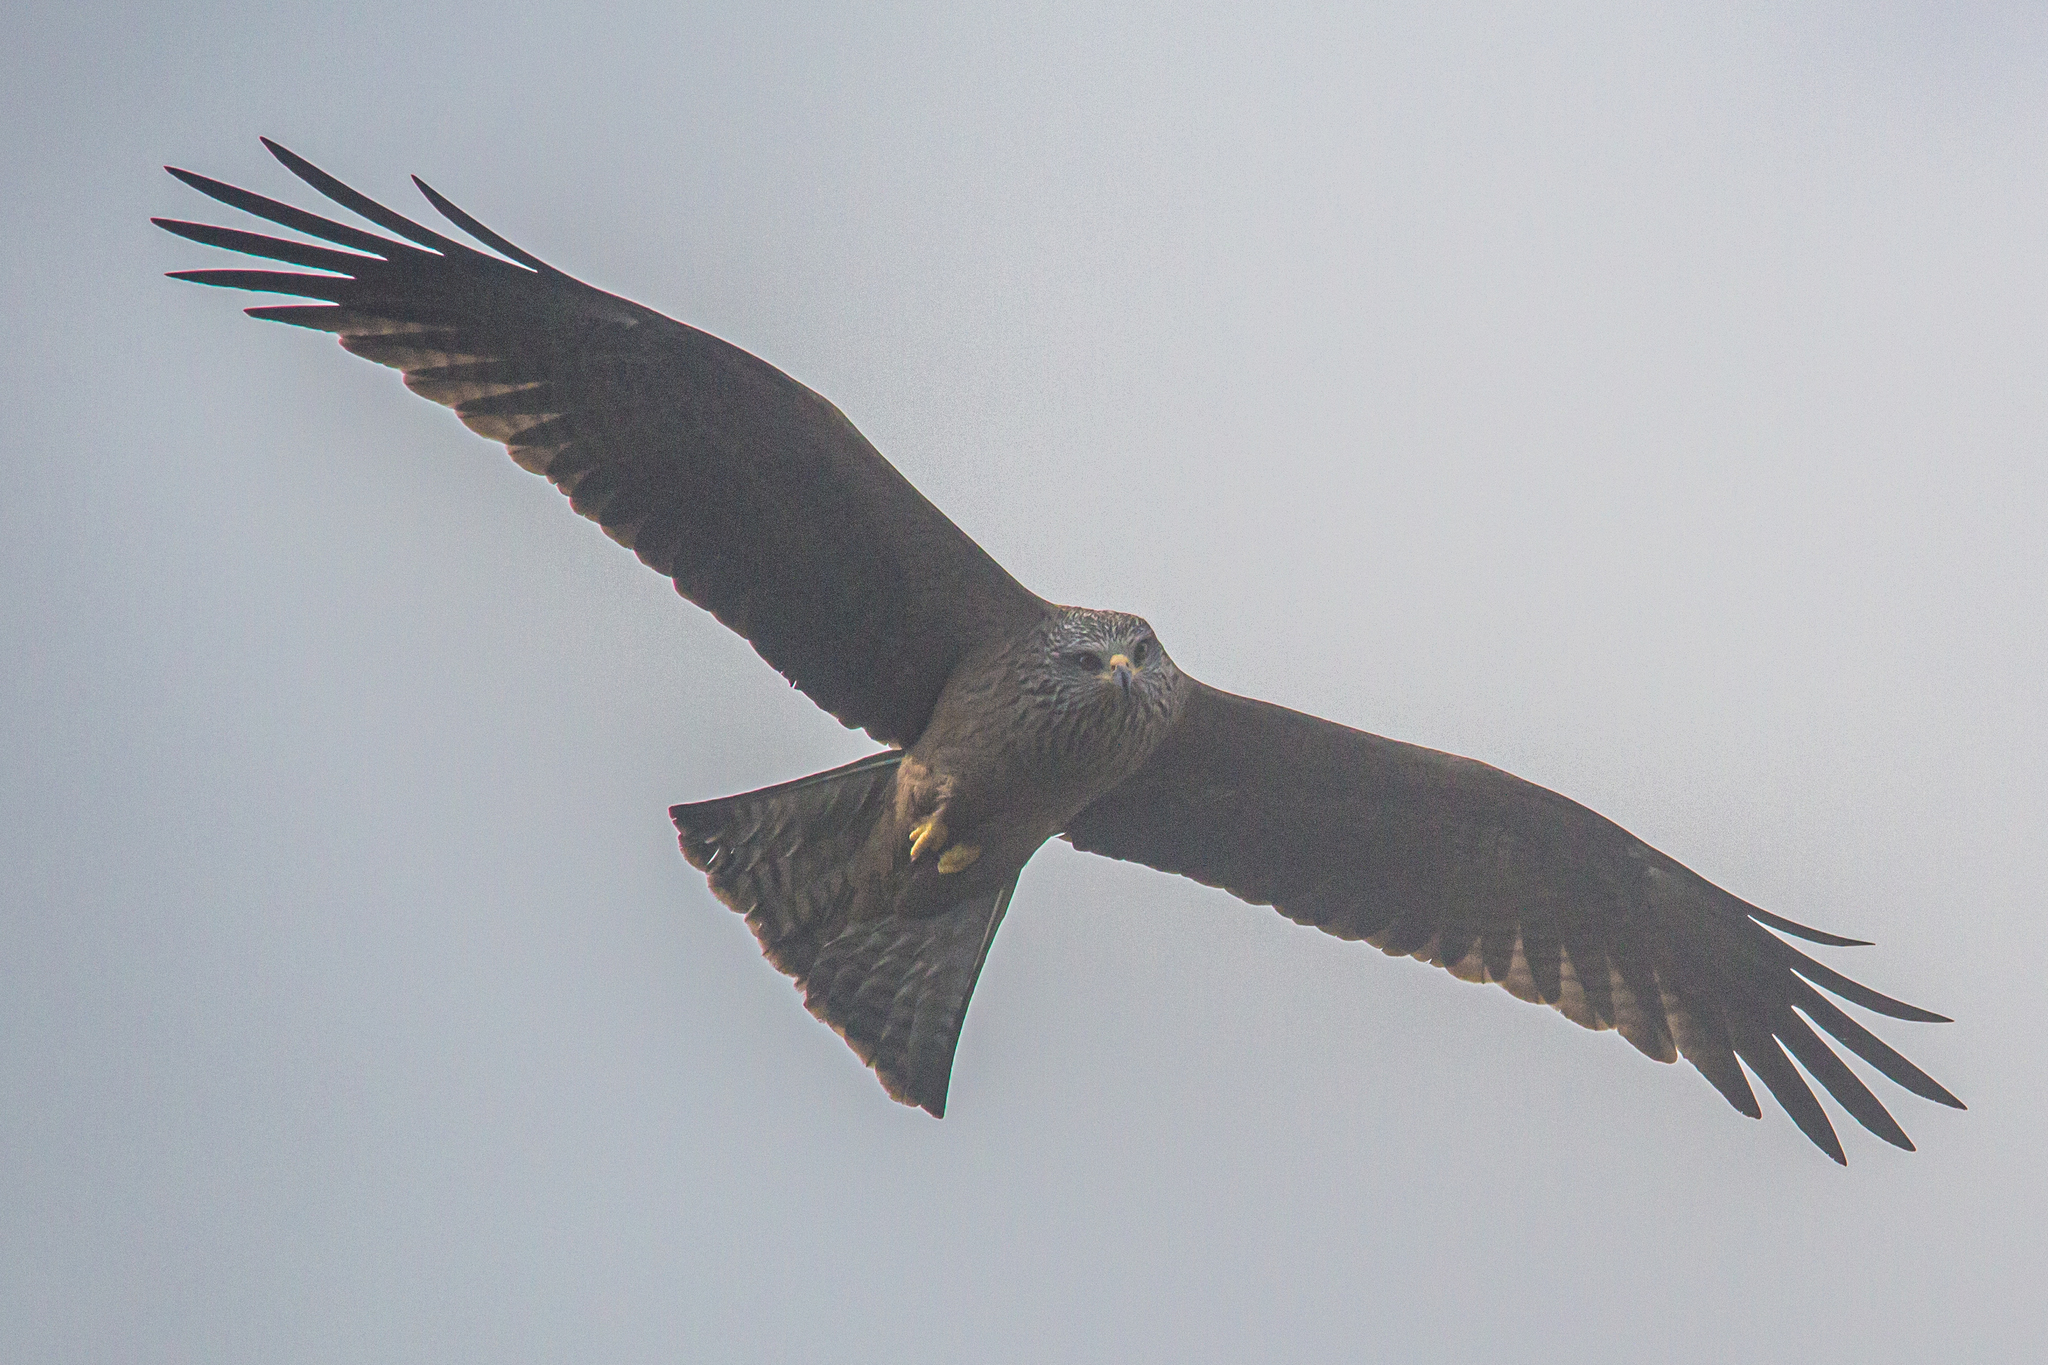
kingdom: Animalia
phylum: Chordata
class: Aves
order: Accipitriformes
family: Accipitridae
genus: Milvus
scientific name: Milvus migrans
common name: Black kite
